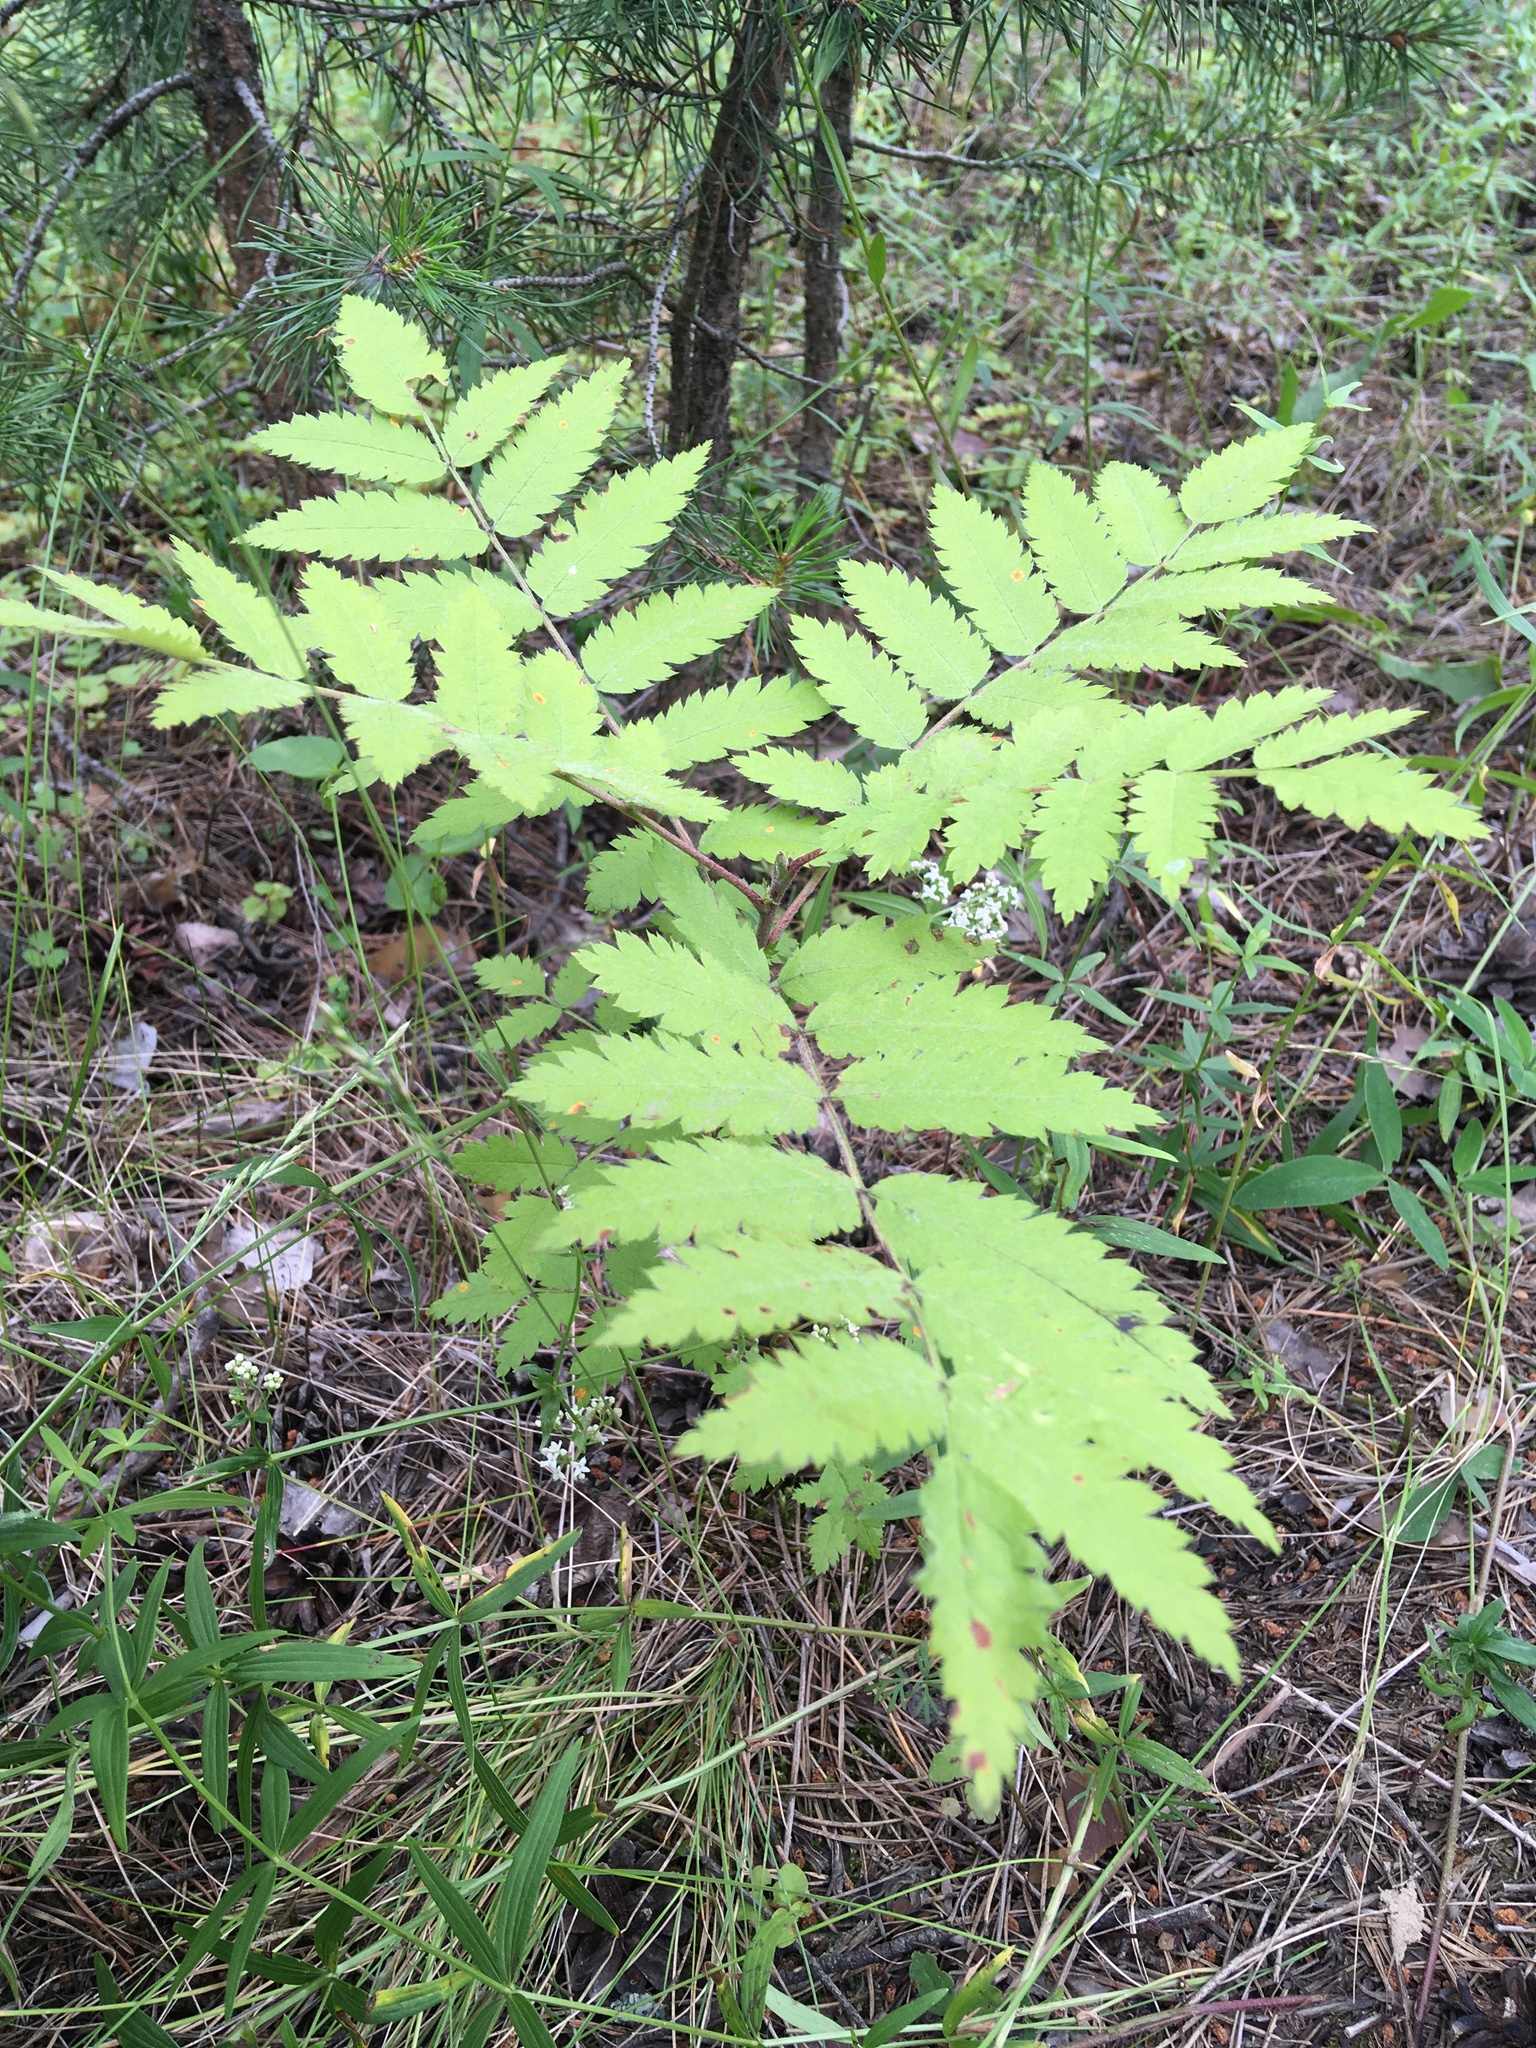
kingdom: Plantae
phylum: Tracheophyta
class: Magnoliopsida
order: Rosales
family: Rosaceae
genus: Sorbus
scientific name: Sorbus aucuparia
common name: Rowan
